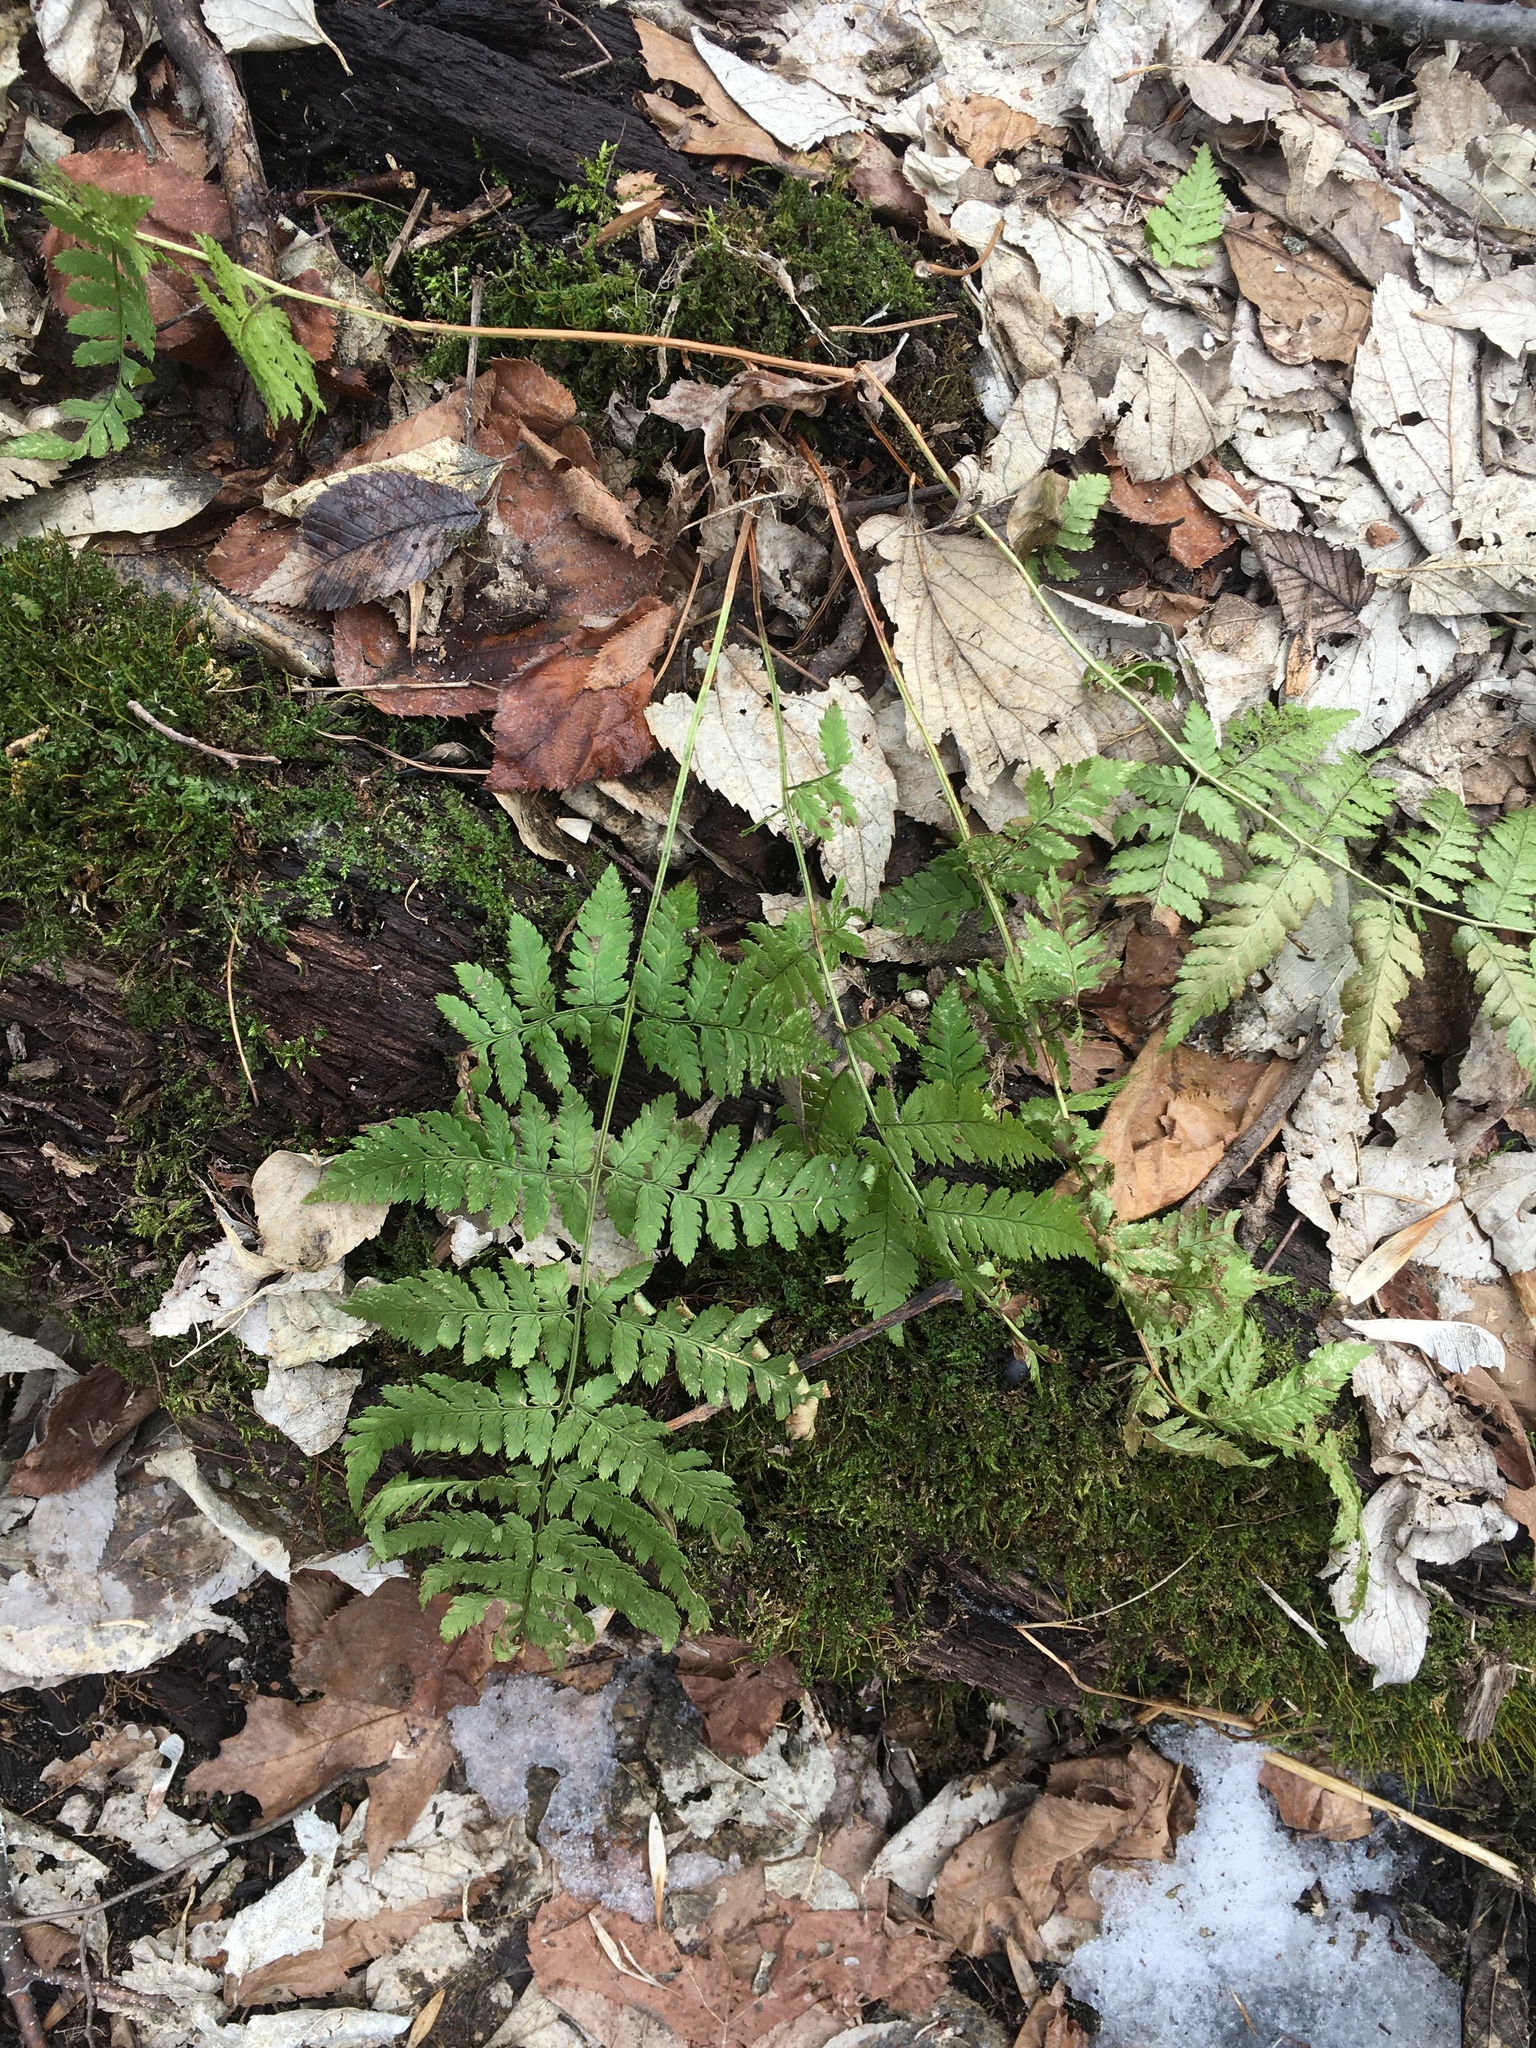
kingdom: Plantae
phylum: Tracheophyta
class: Polypodiopsida
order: Polypodiales
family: Dryopteridaceae
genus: Dryopteris
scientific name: Dryopteris carthusiana
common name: Narrow buckler-fern
